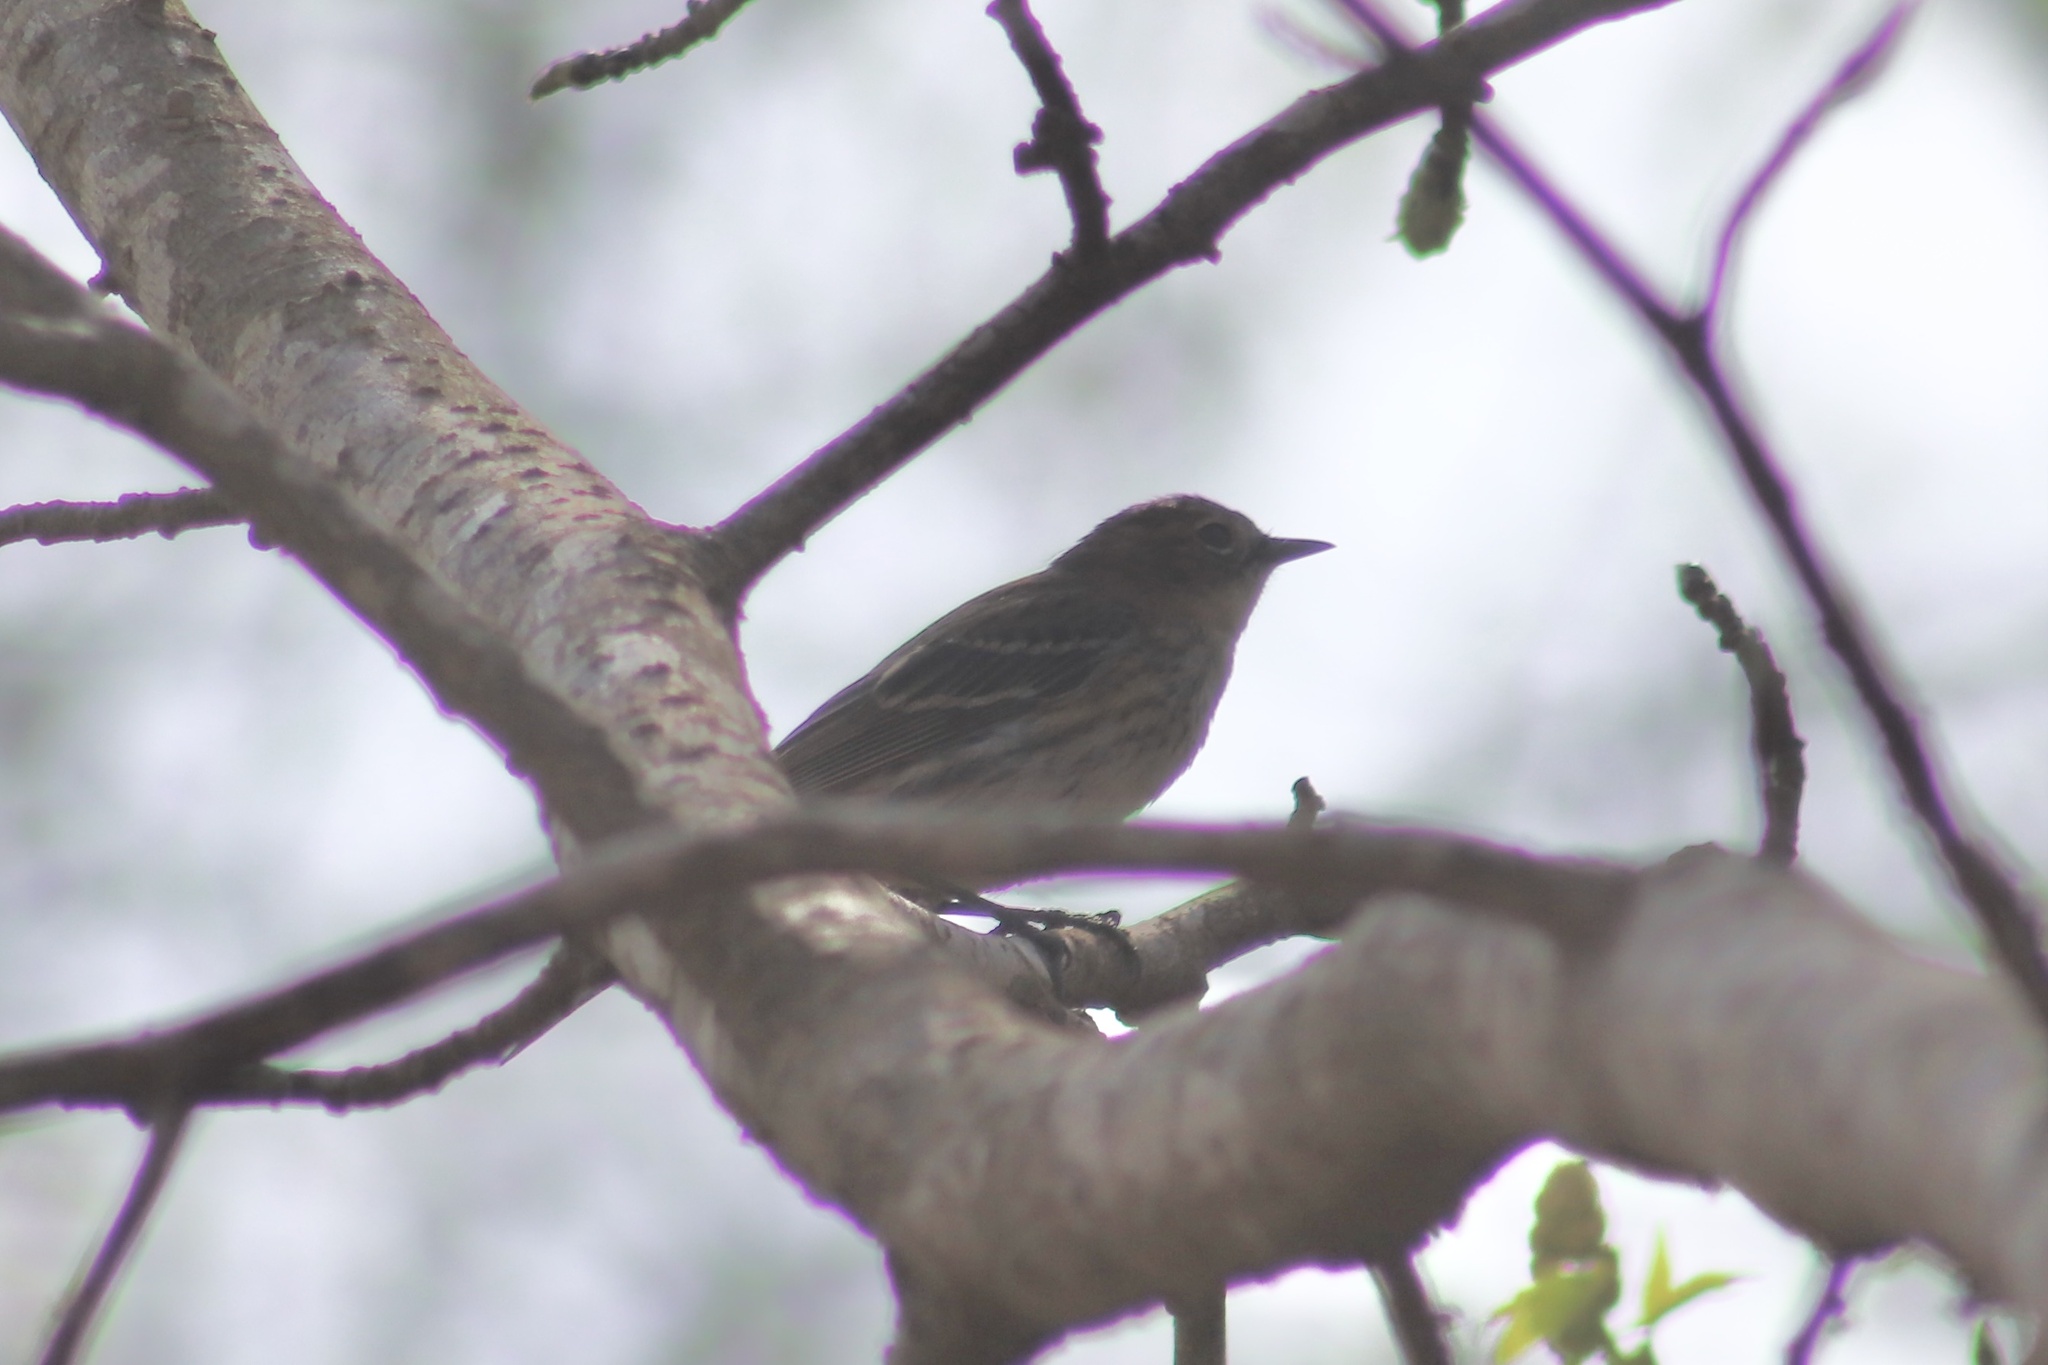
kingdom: Animalia
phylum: Chordata
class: Aves
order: Passeriformes
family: Parulidae
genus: Setophaga
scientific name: Setophaga coronata
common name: Myrtle warbler
